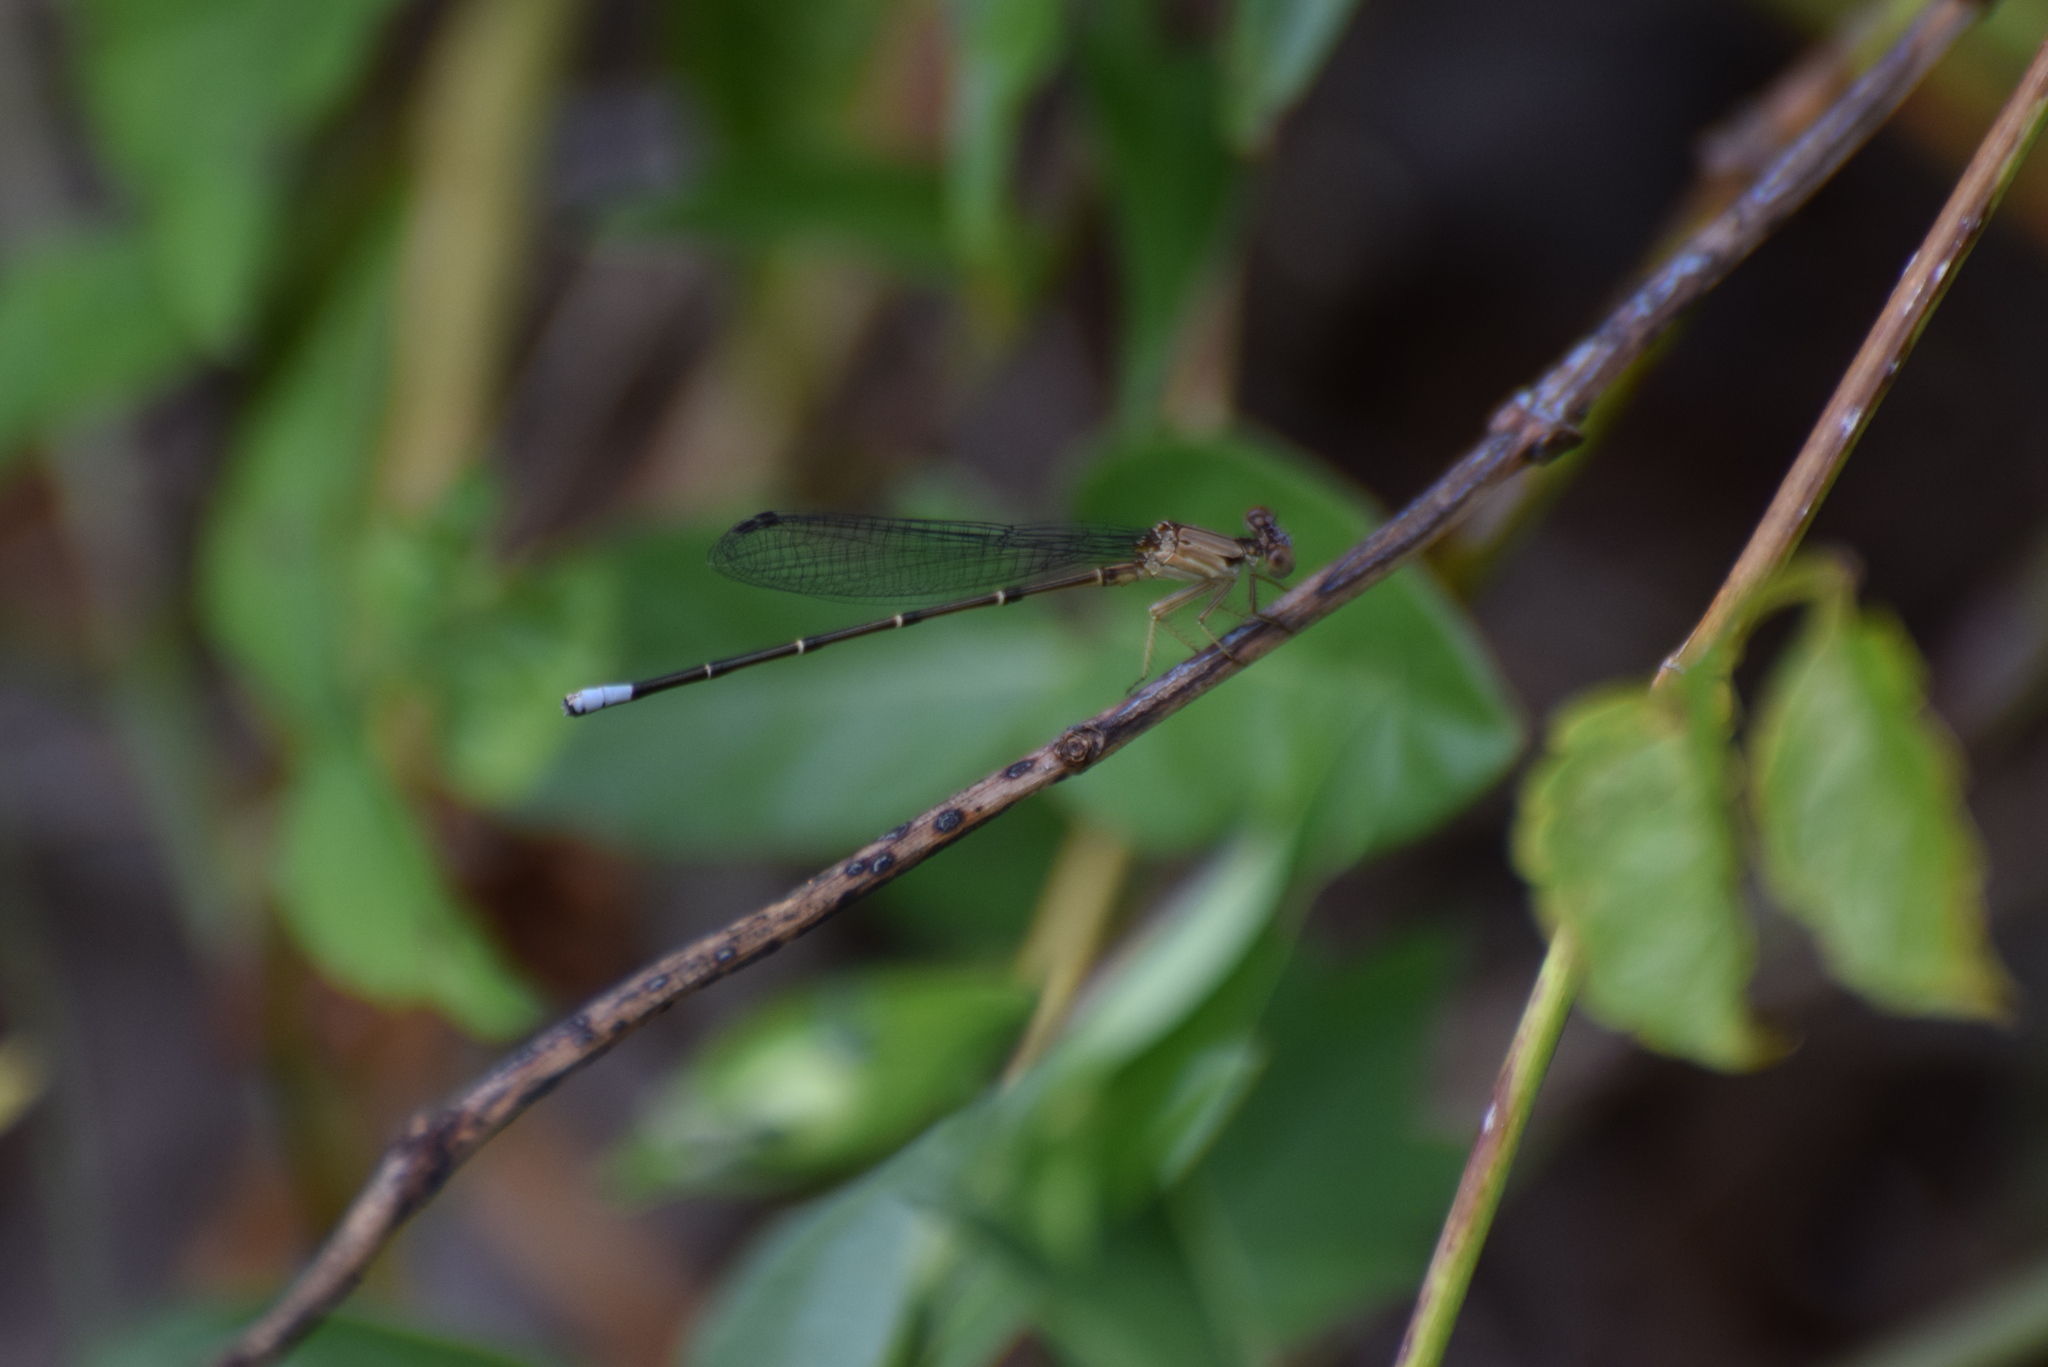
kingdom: Animalia
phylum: Arthropoda
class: Insecta
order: Odonata
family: Coenagrionidae
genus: Argia
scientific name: Argia apicalis
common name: Blue-fronted dancer
